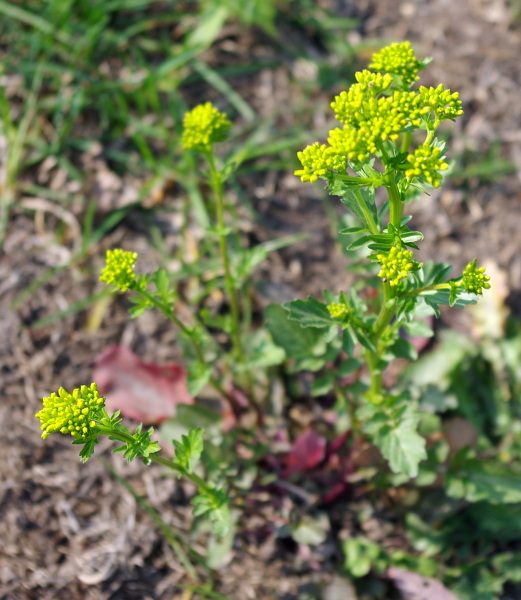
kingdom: Plantae
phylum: Tracheophyta
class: Magnoliopsida
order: Brassicales
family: Brassicaceae
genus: Barbarea
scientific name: Barbarea vulgaris
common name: Cressy-greens
